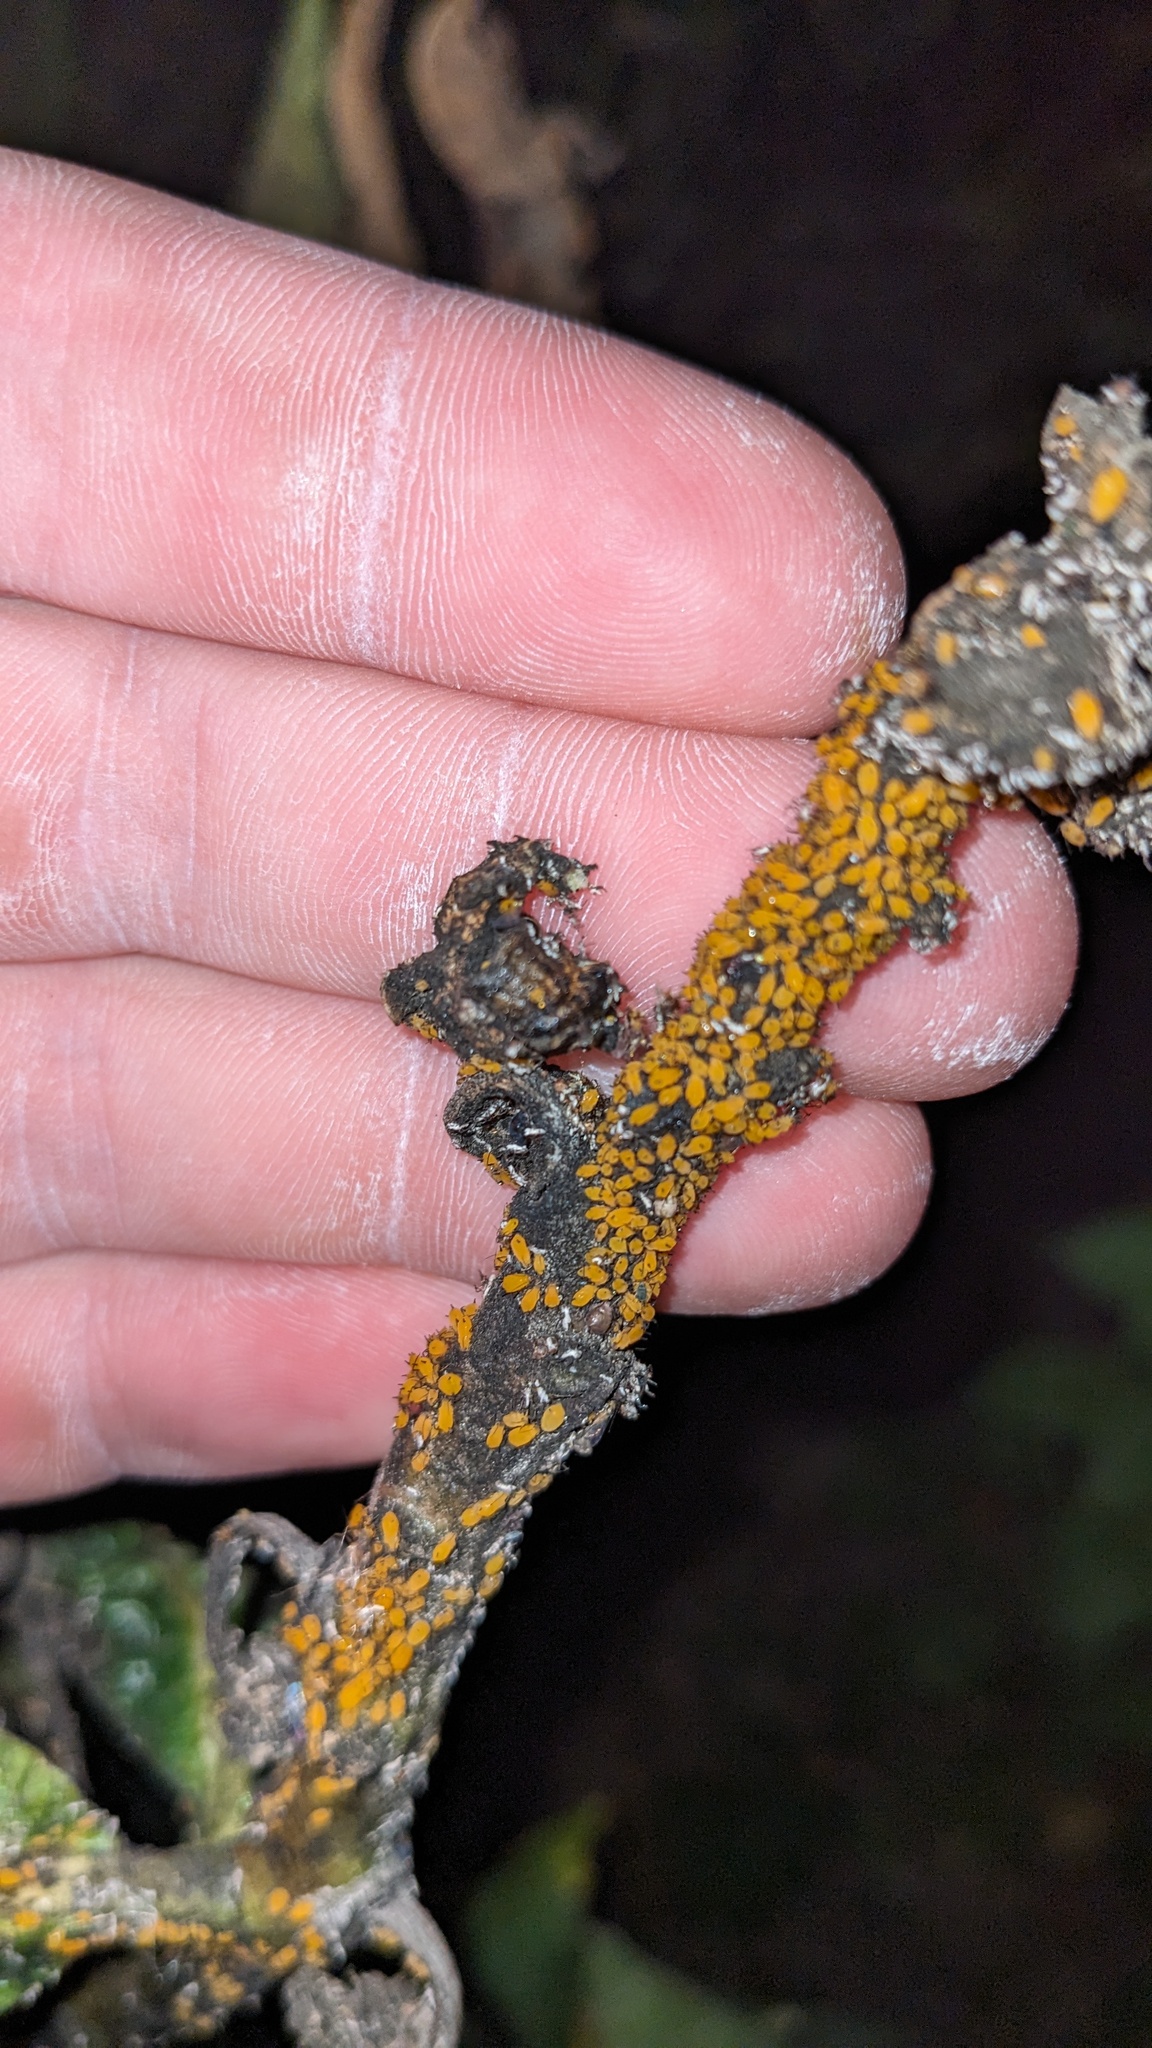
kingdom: Animalia
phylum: Arthropoda
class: Insecta
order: Hemiptera
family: Aphididae
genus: Aphis
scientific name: Aphis nerii
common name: Oleander aphid
